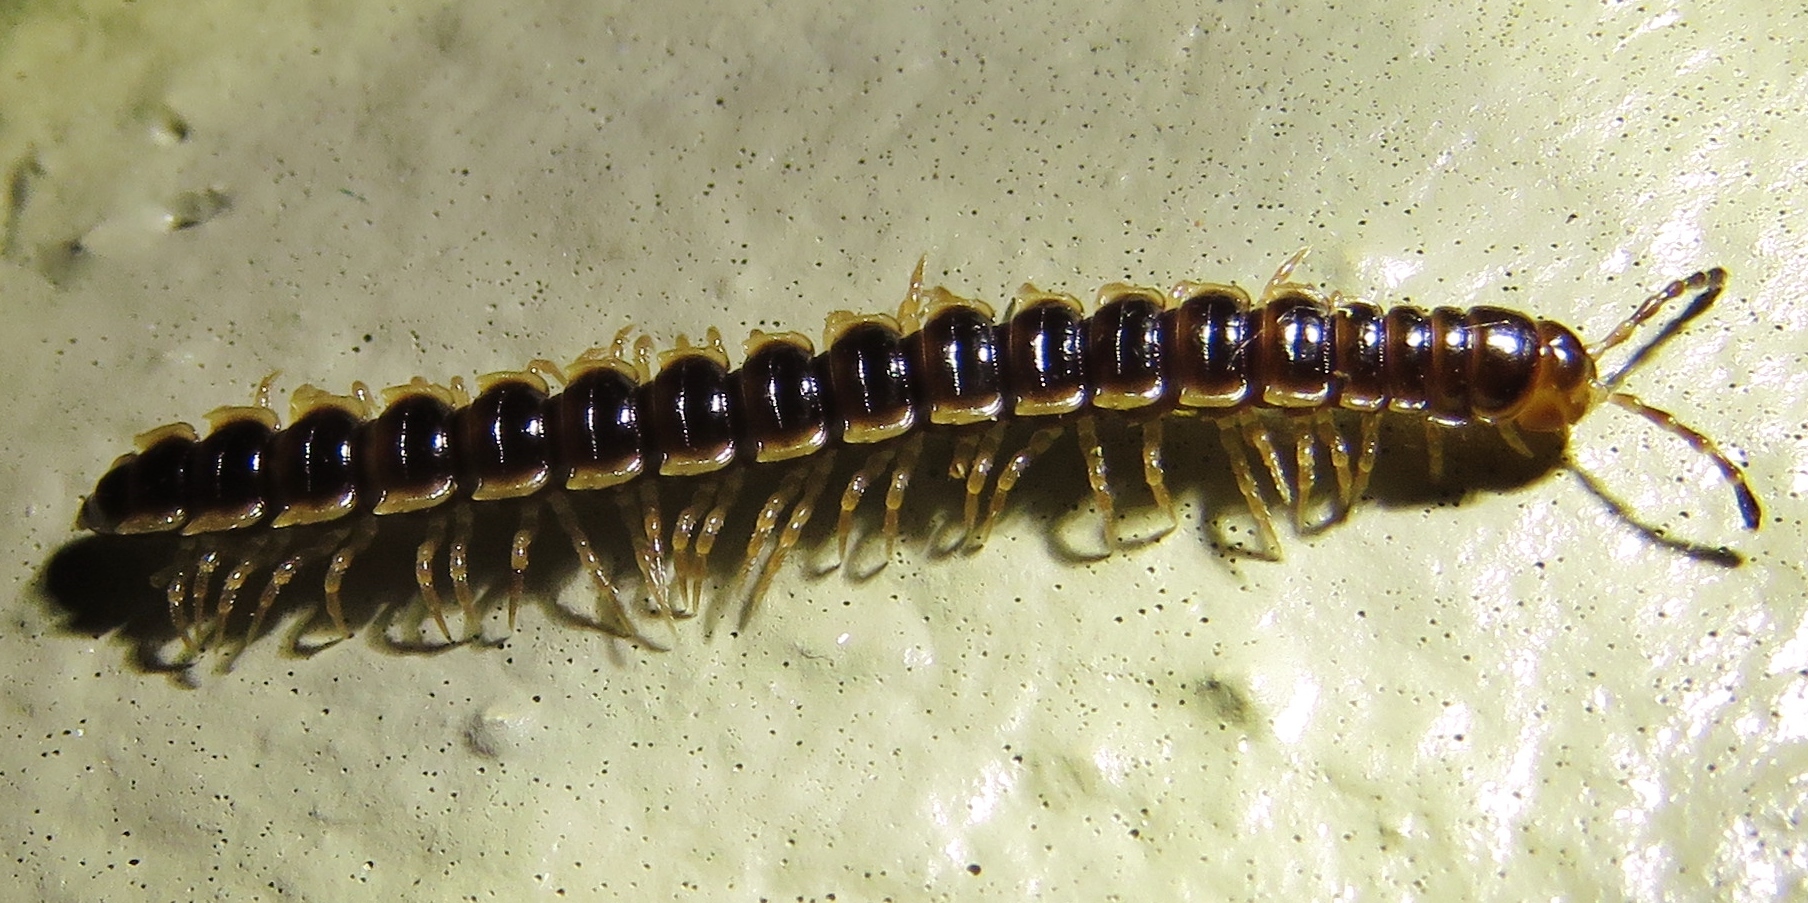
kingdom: Animalia
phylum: Arthropoda
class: Diplopoda
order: Polydesmida
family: Paradoxosomatidae
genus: Oxidus
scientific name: Oxidus gracilis
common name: Greenhouse millipede
